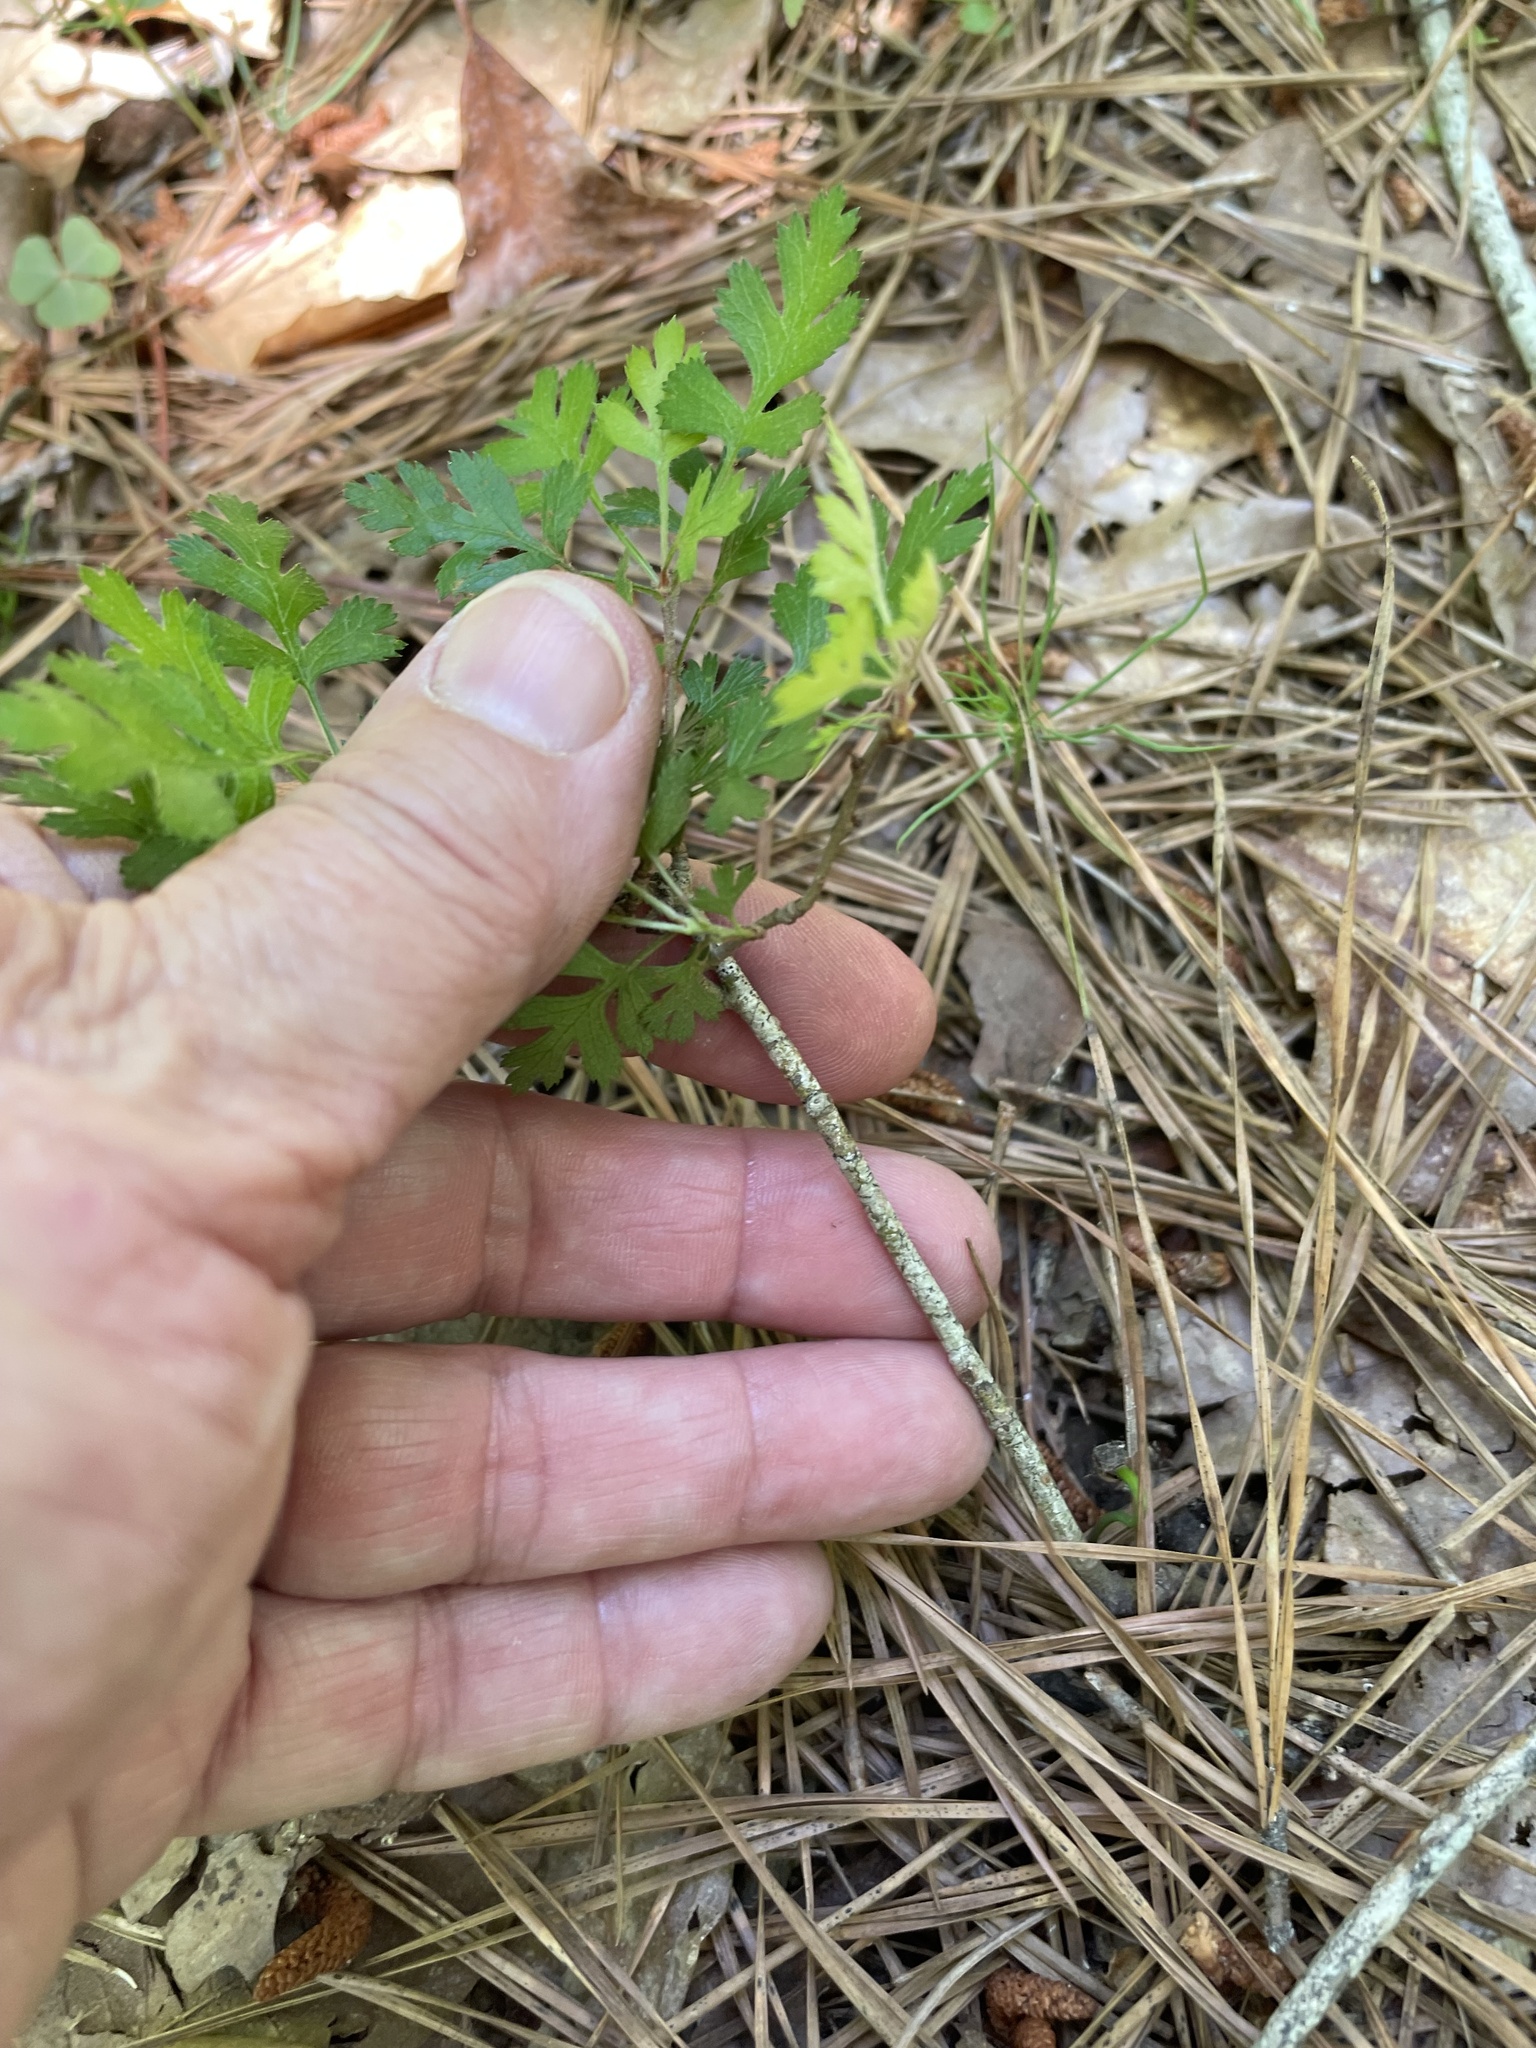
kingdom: Plantae
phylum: Tracheophyta
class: Magnoliopsida
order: Rosales
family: Rosaceae
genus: Crataegus
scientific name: Crataegus marshallii
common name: Parsley-hawthorn
